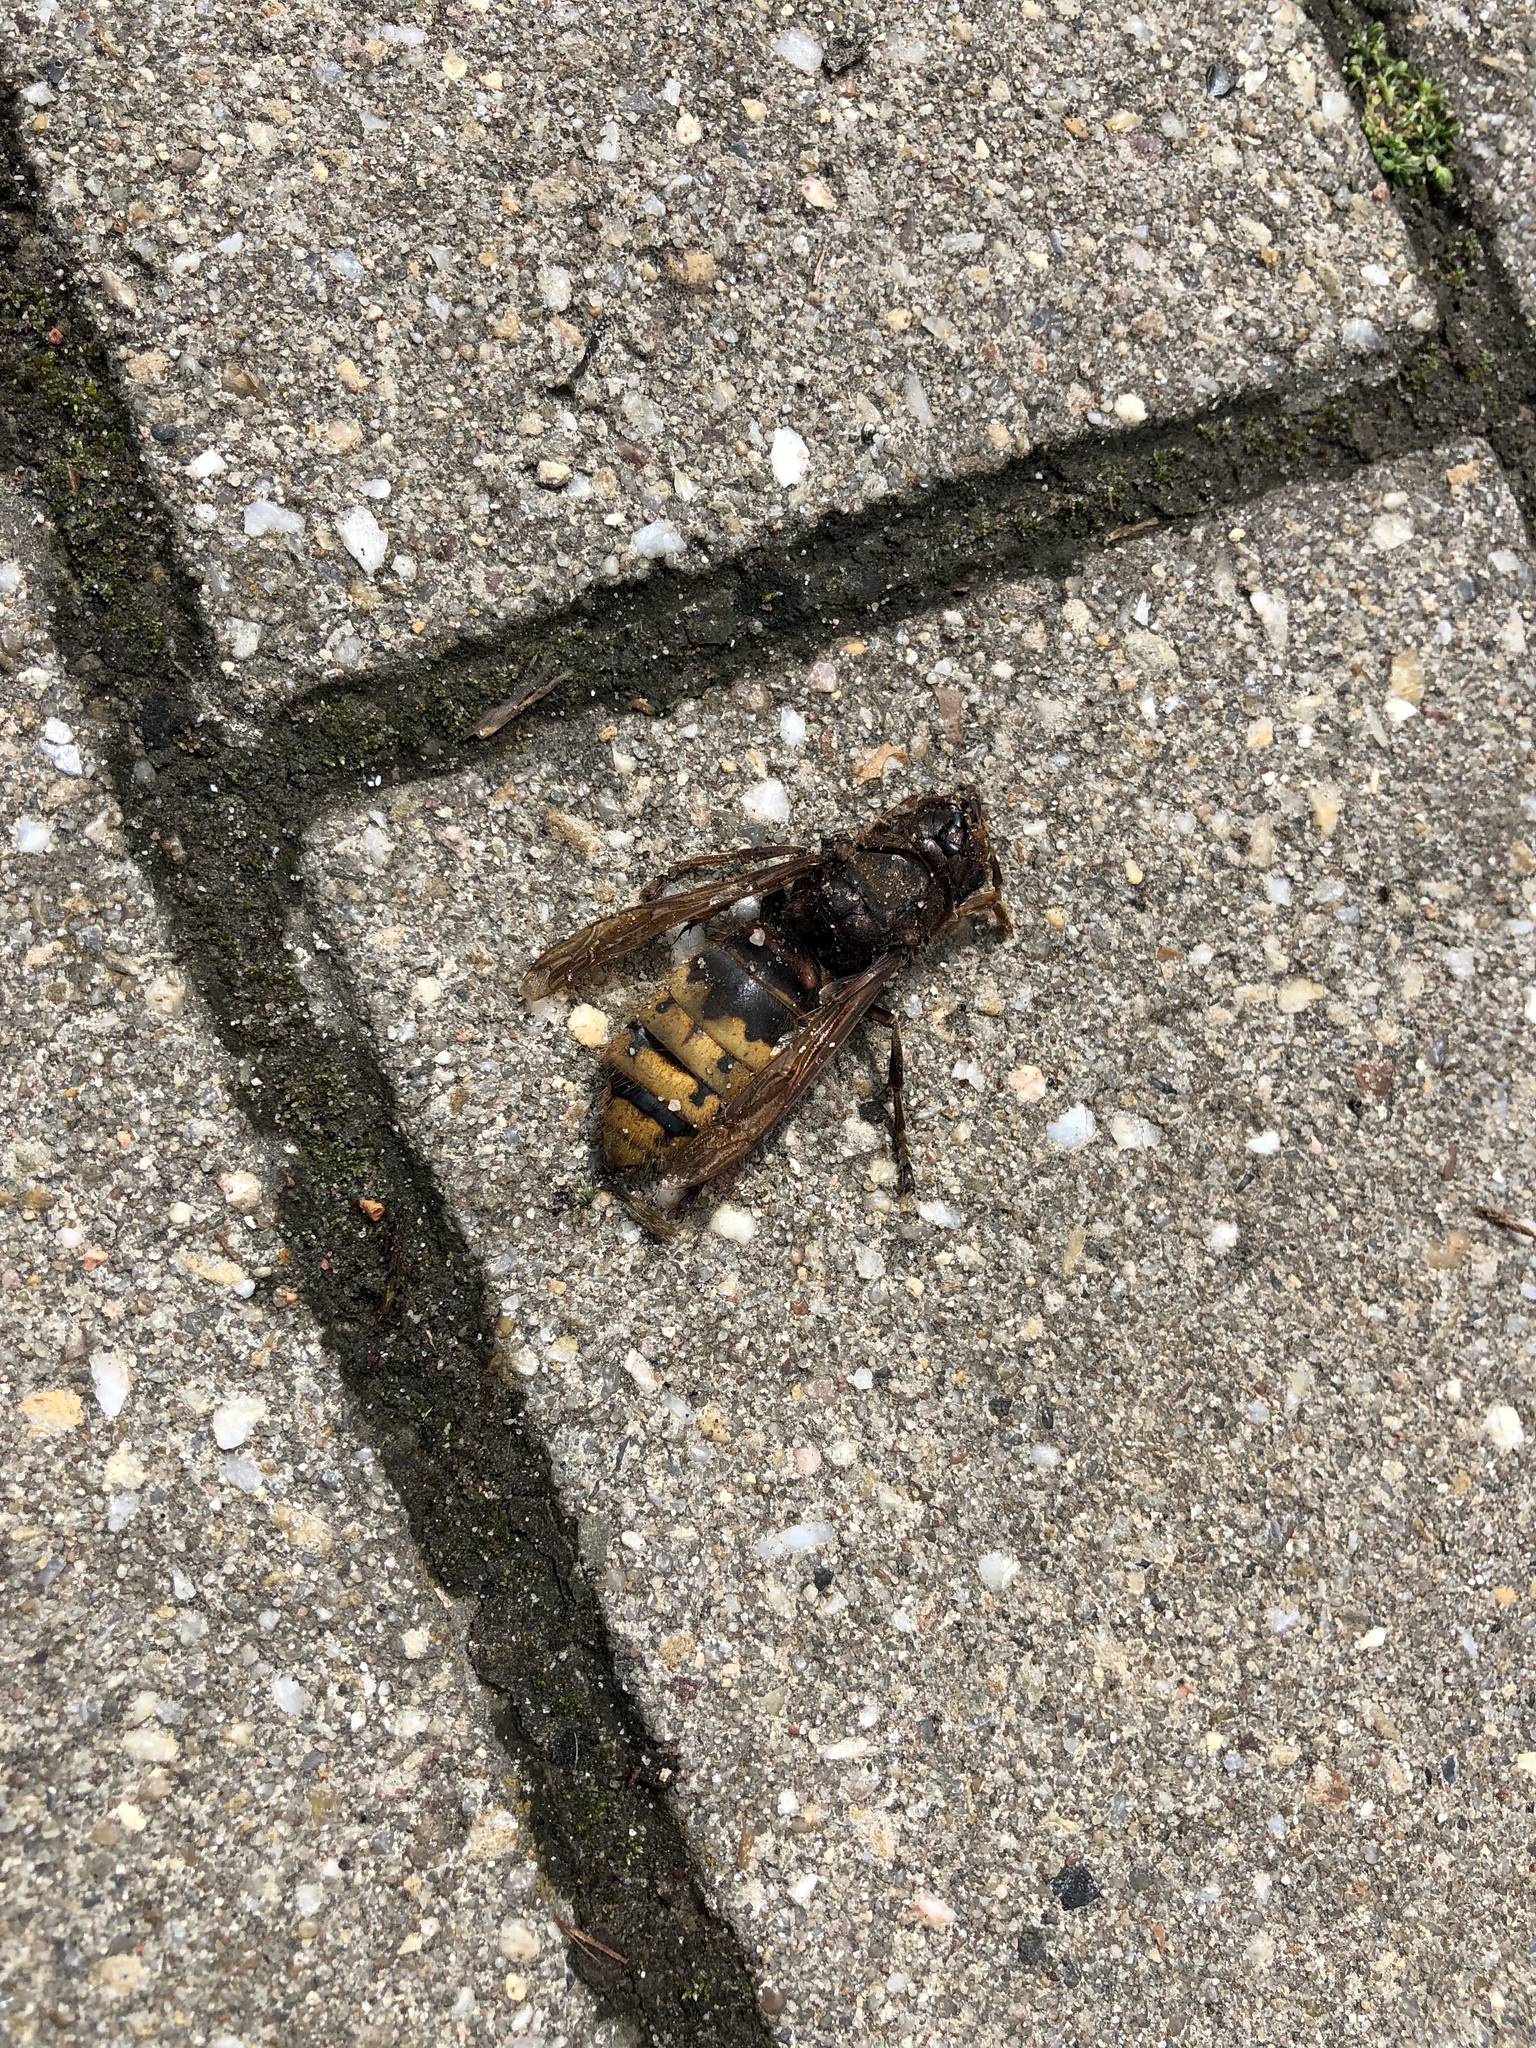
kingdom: Animalia
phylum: Arthropoda
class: Insecta
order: Hymenoptera
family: Vespidae
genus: Vespa
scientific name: Vespa crabro
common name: Hornet
